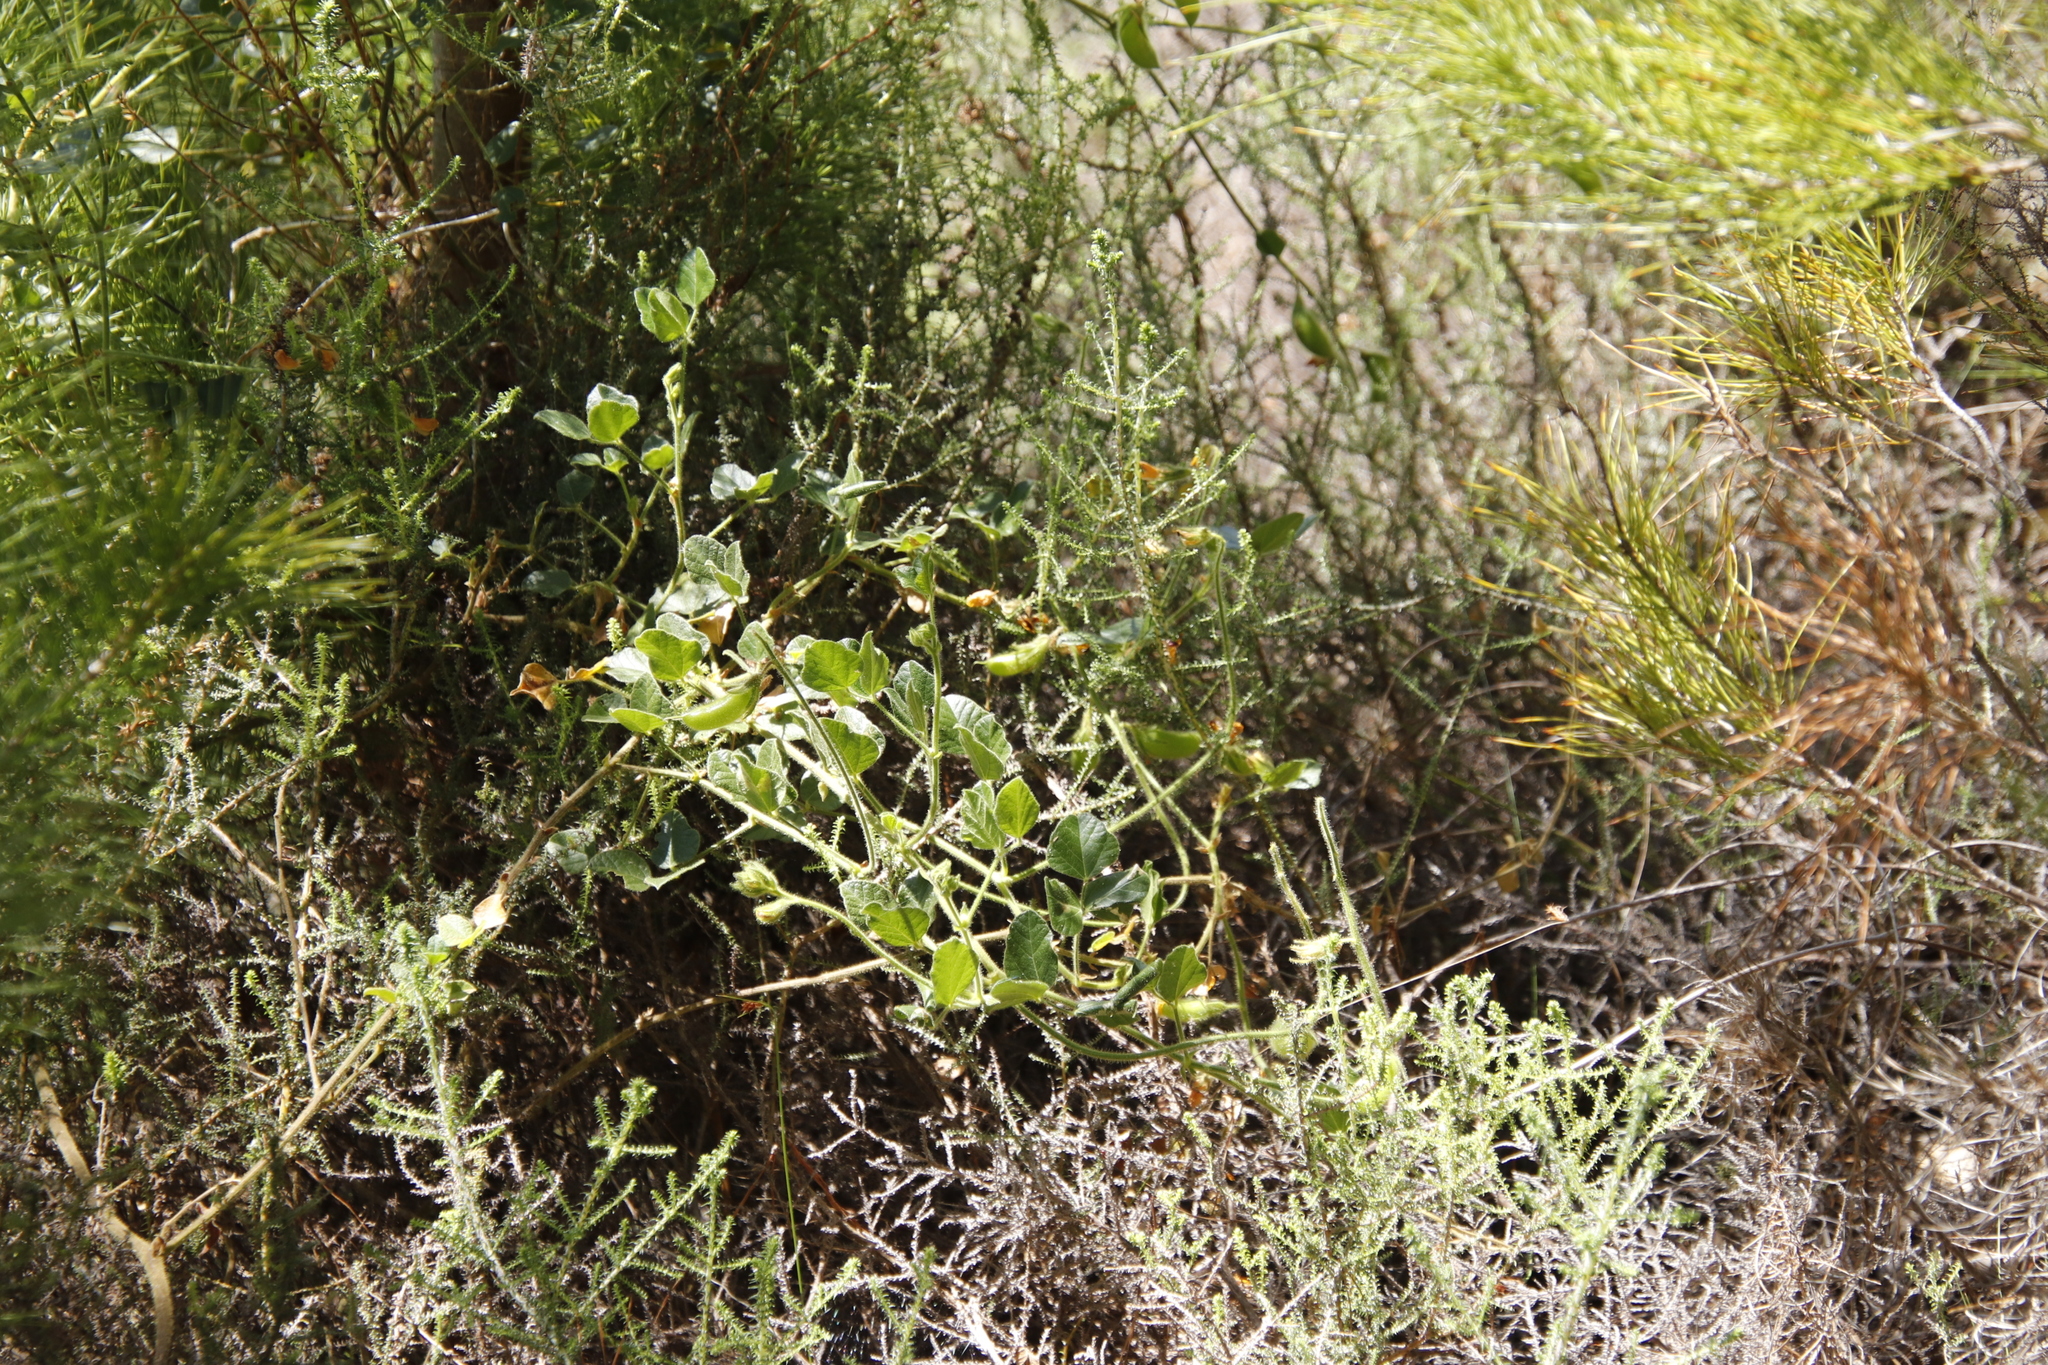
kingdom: Plantae
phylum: Tracheophyta
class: Magnoliopsida
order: Fabales
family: Fabaceae
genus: Bolusafra
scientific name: Bolusafra bituminosa
